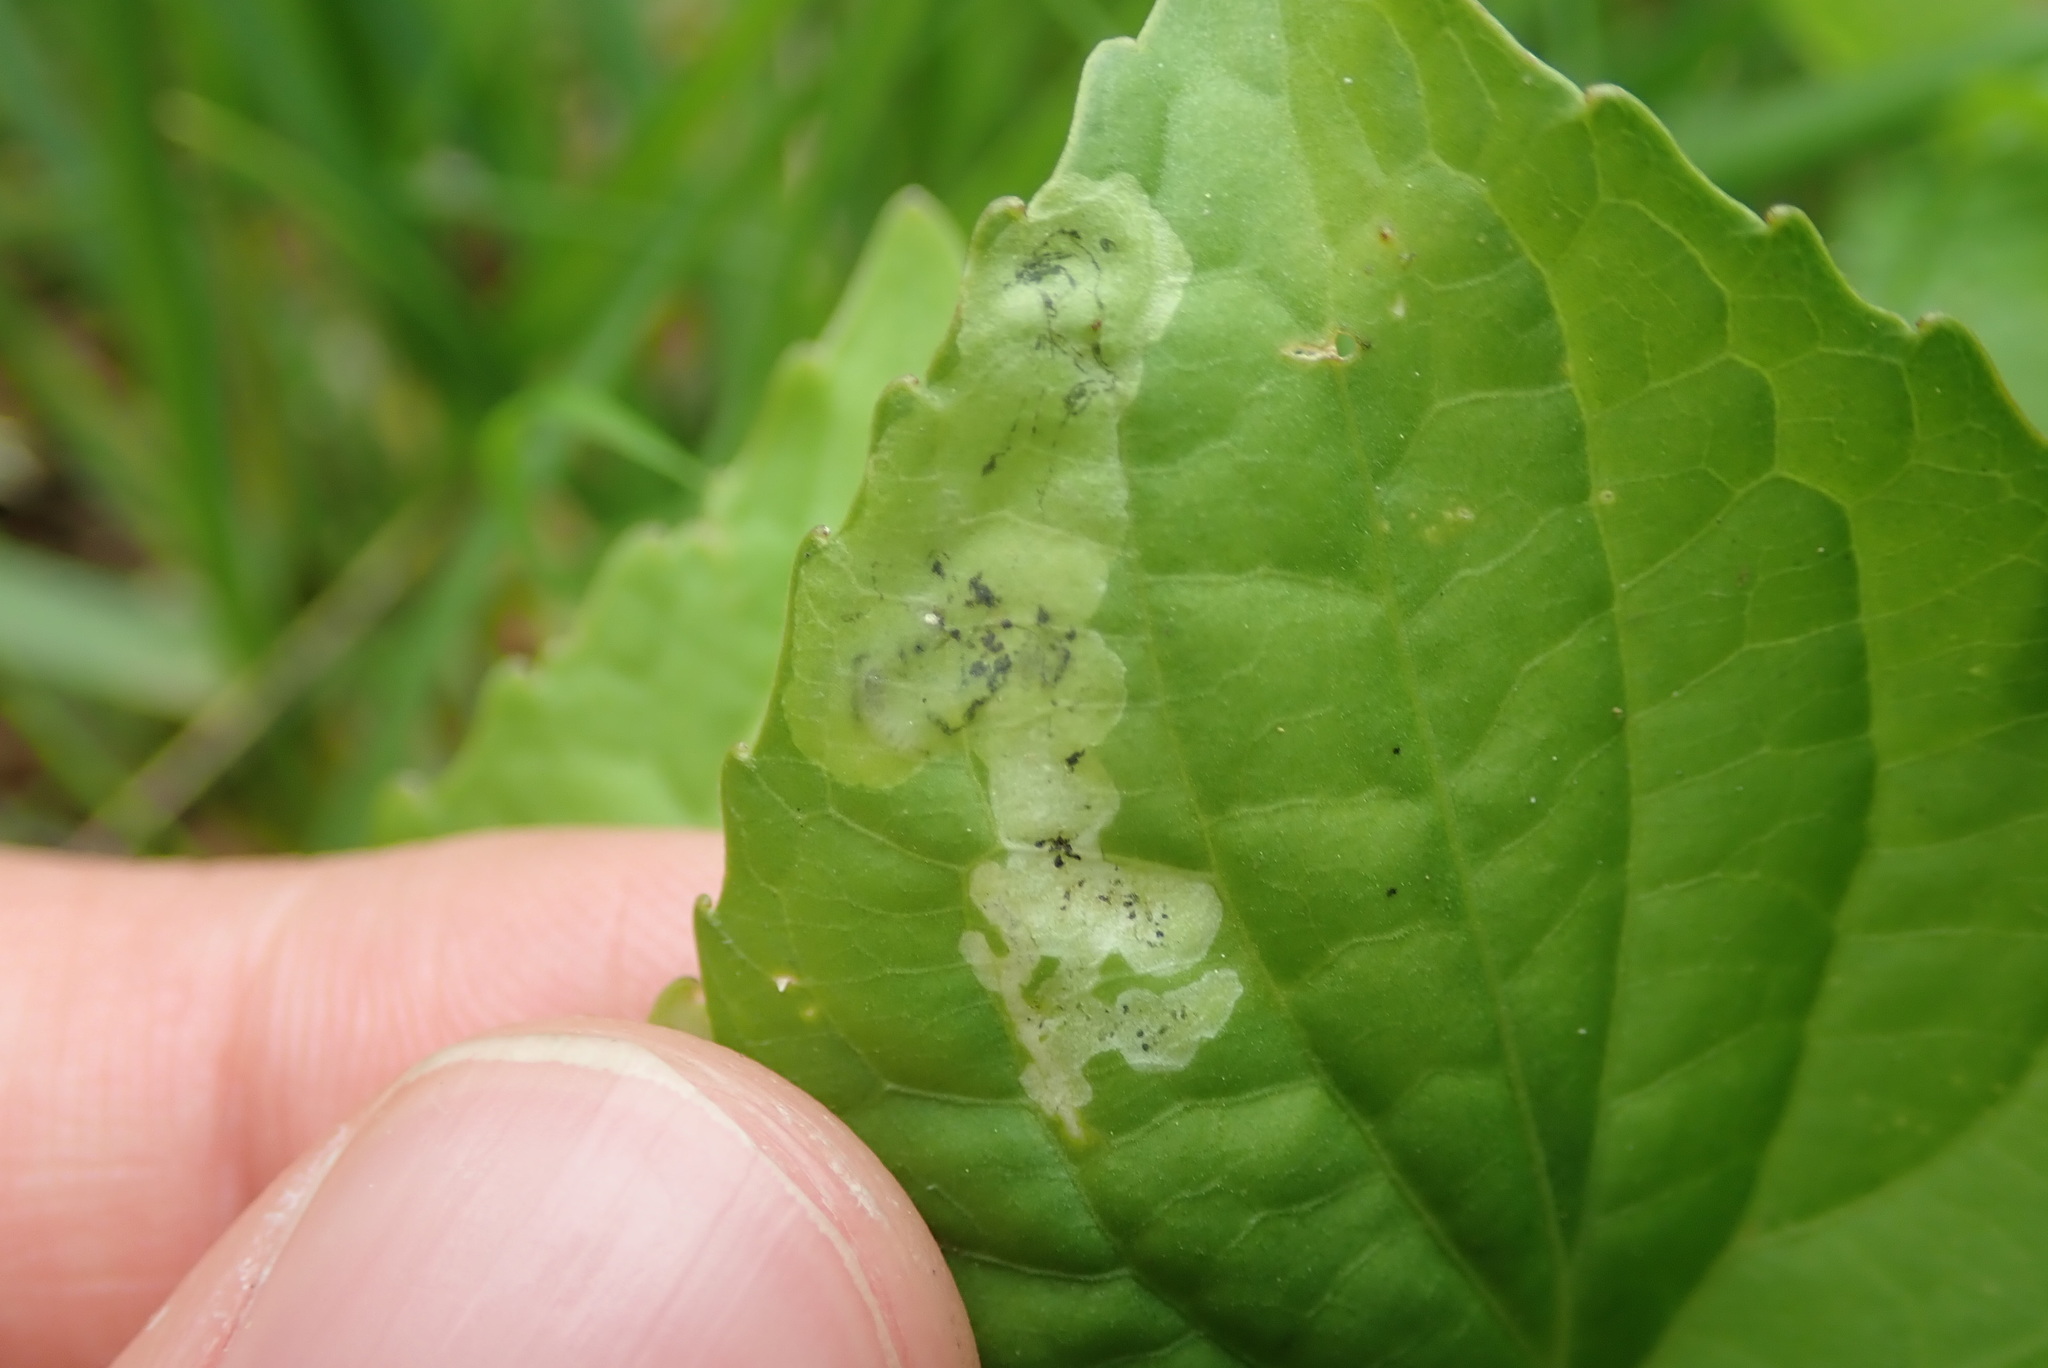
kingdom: Animalia
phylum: Arthropoda
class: Insecta
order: Diptera
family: Agromyzidae
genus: Liriomyza
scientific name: Liriomyza violivora
